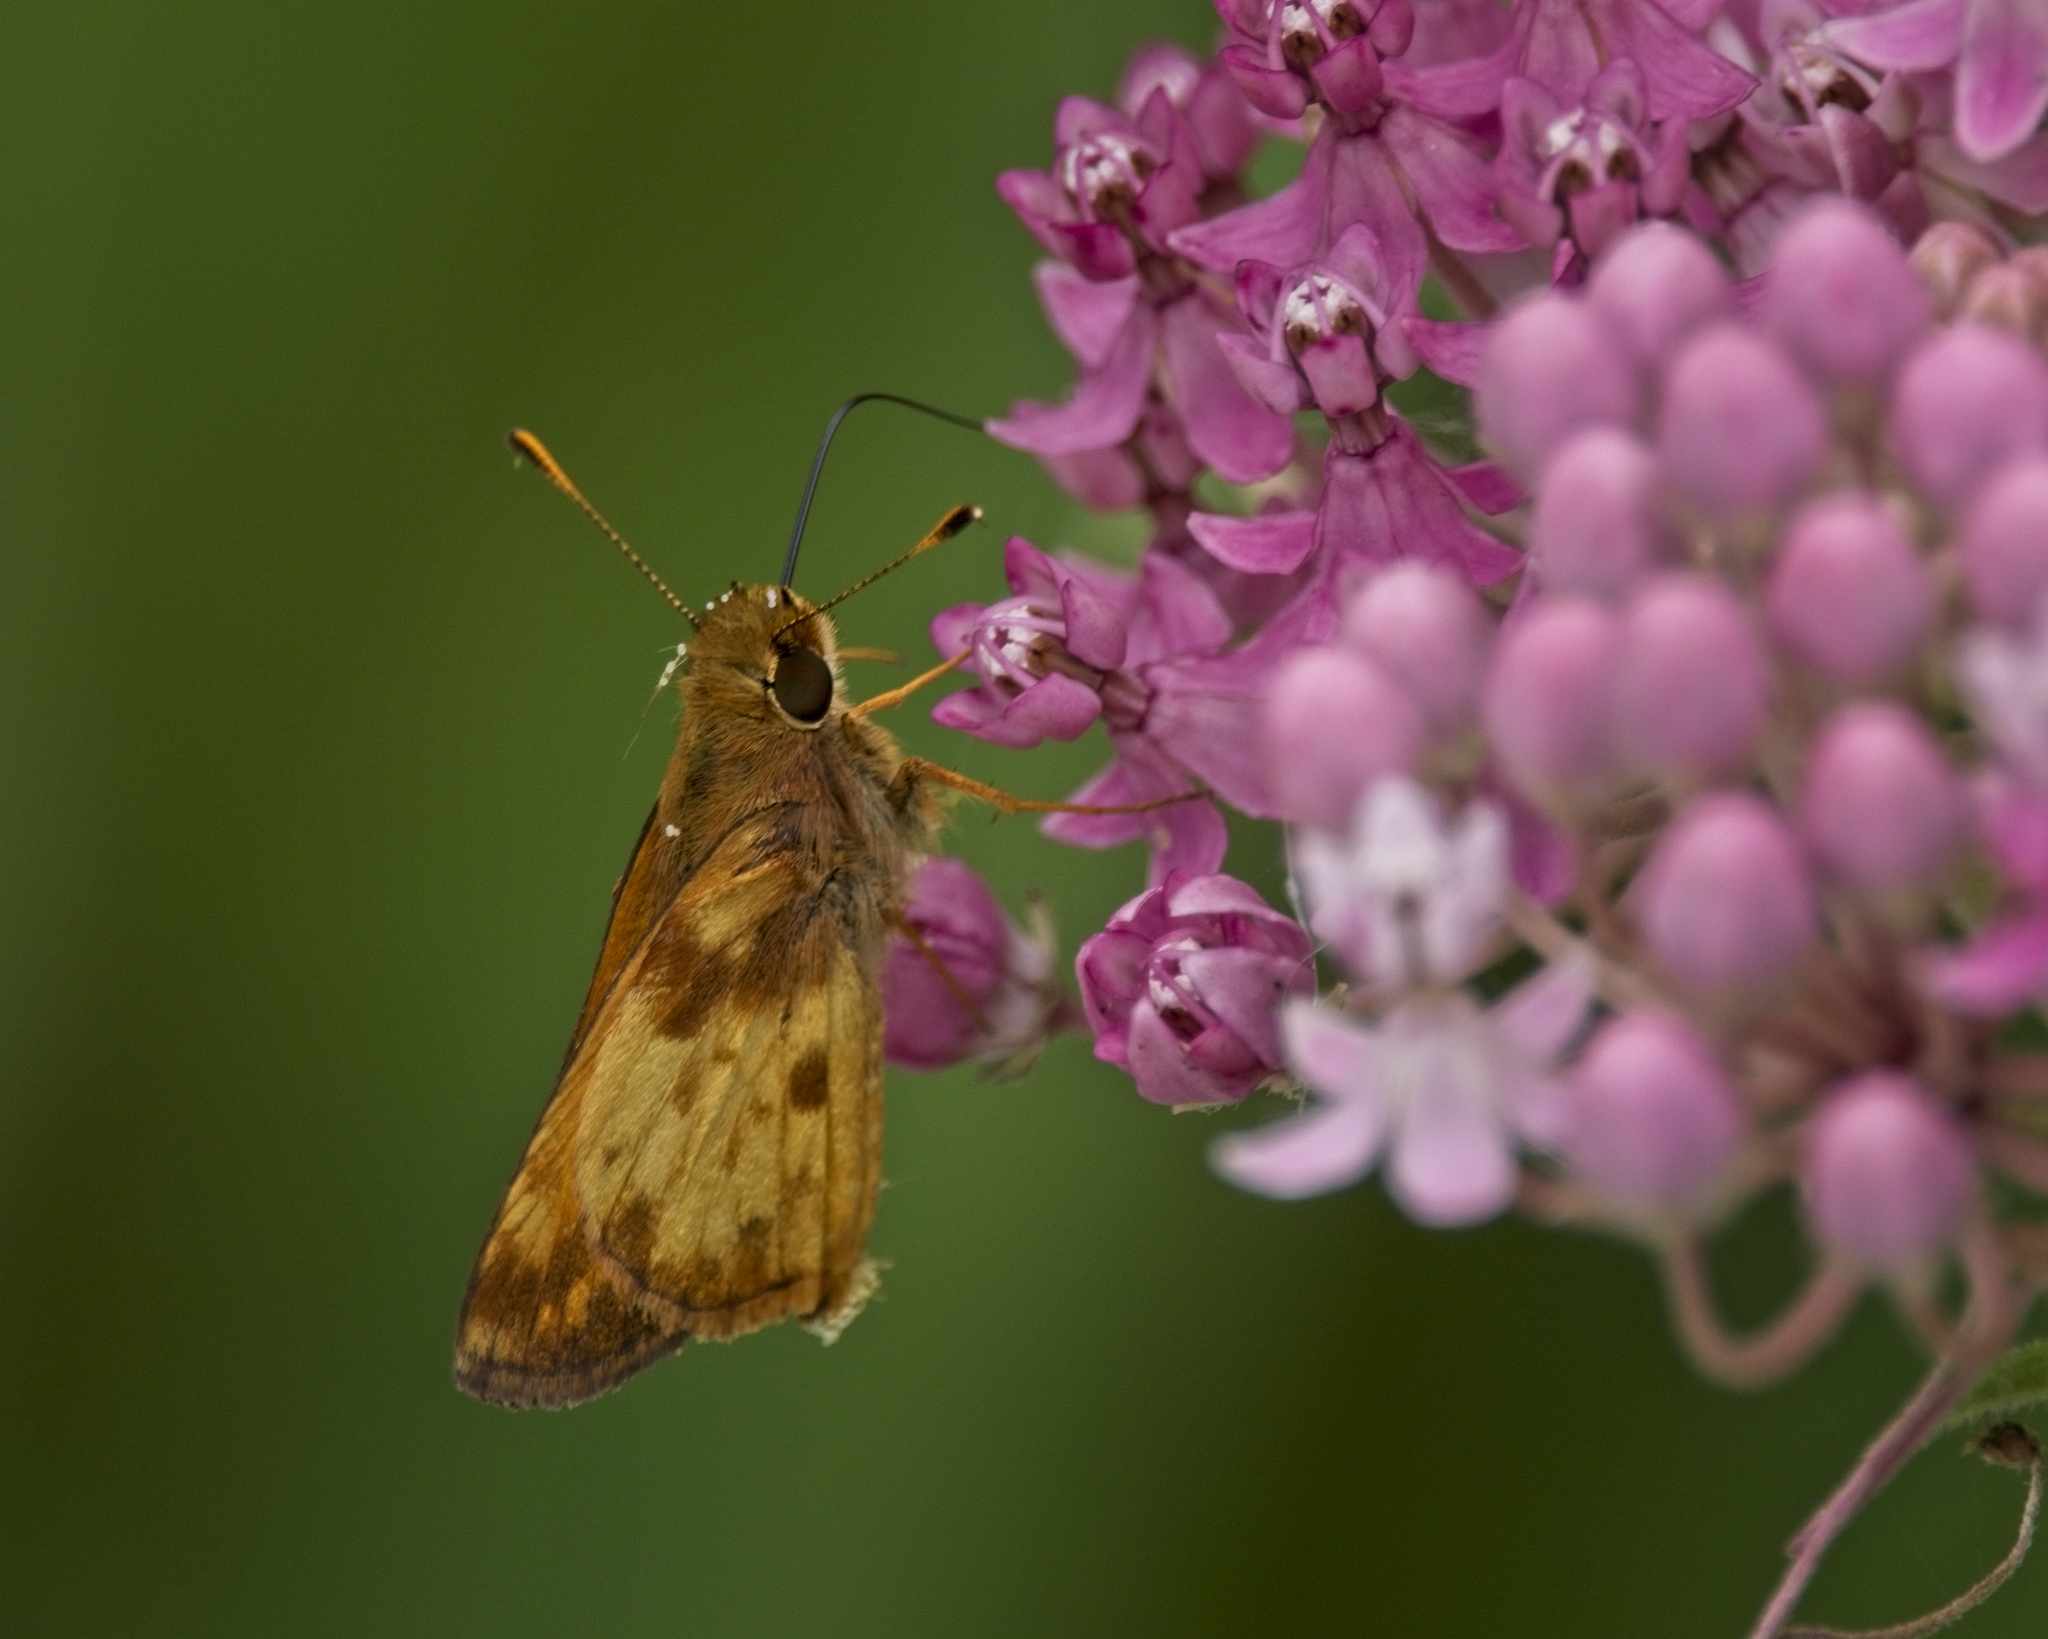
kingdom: Animalia
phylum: Arthropoda
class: Insecta
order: Lepidoptera
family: Hesperiidae
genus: Lon
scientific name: Lon zabulon
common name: Zabulon skipper
